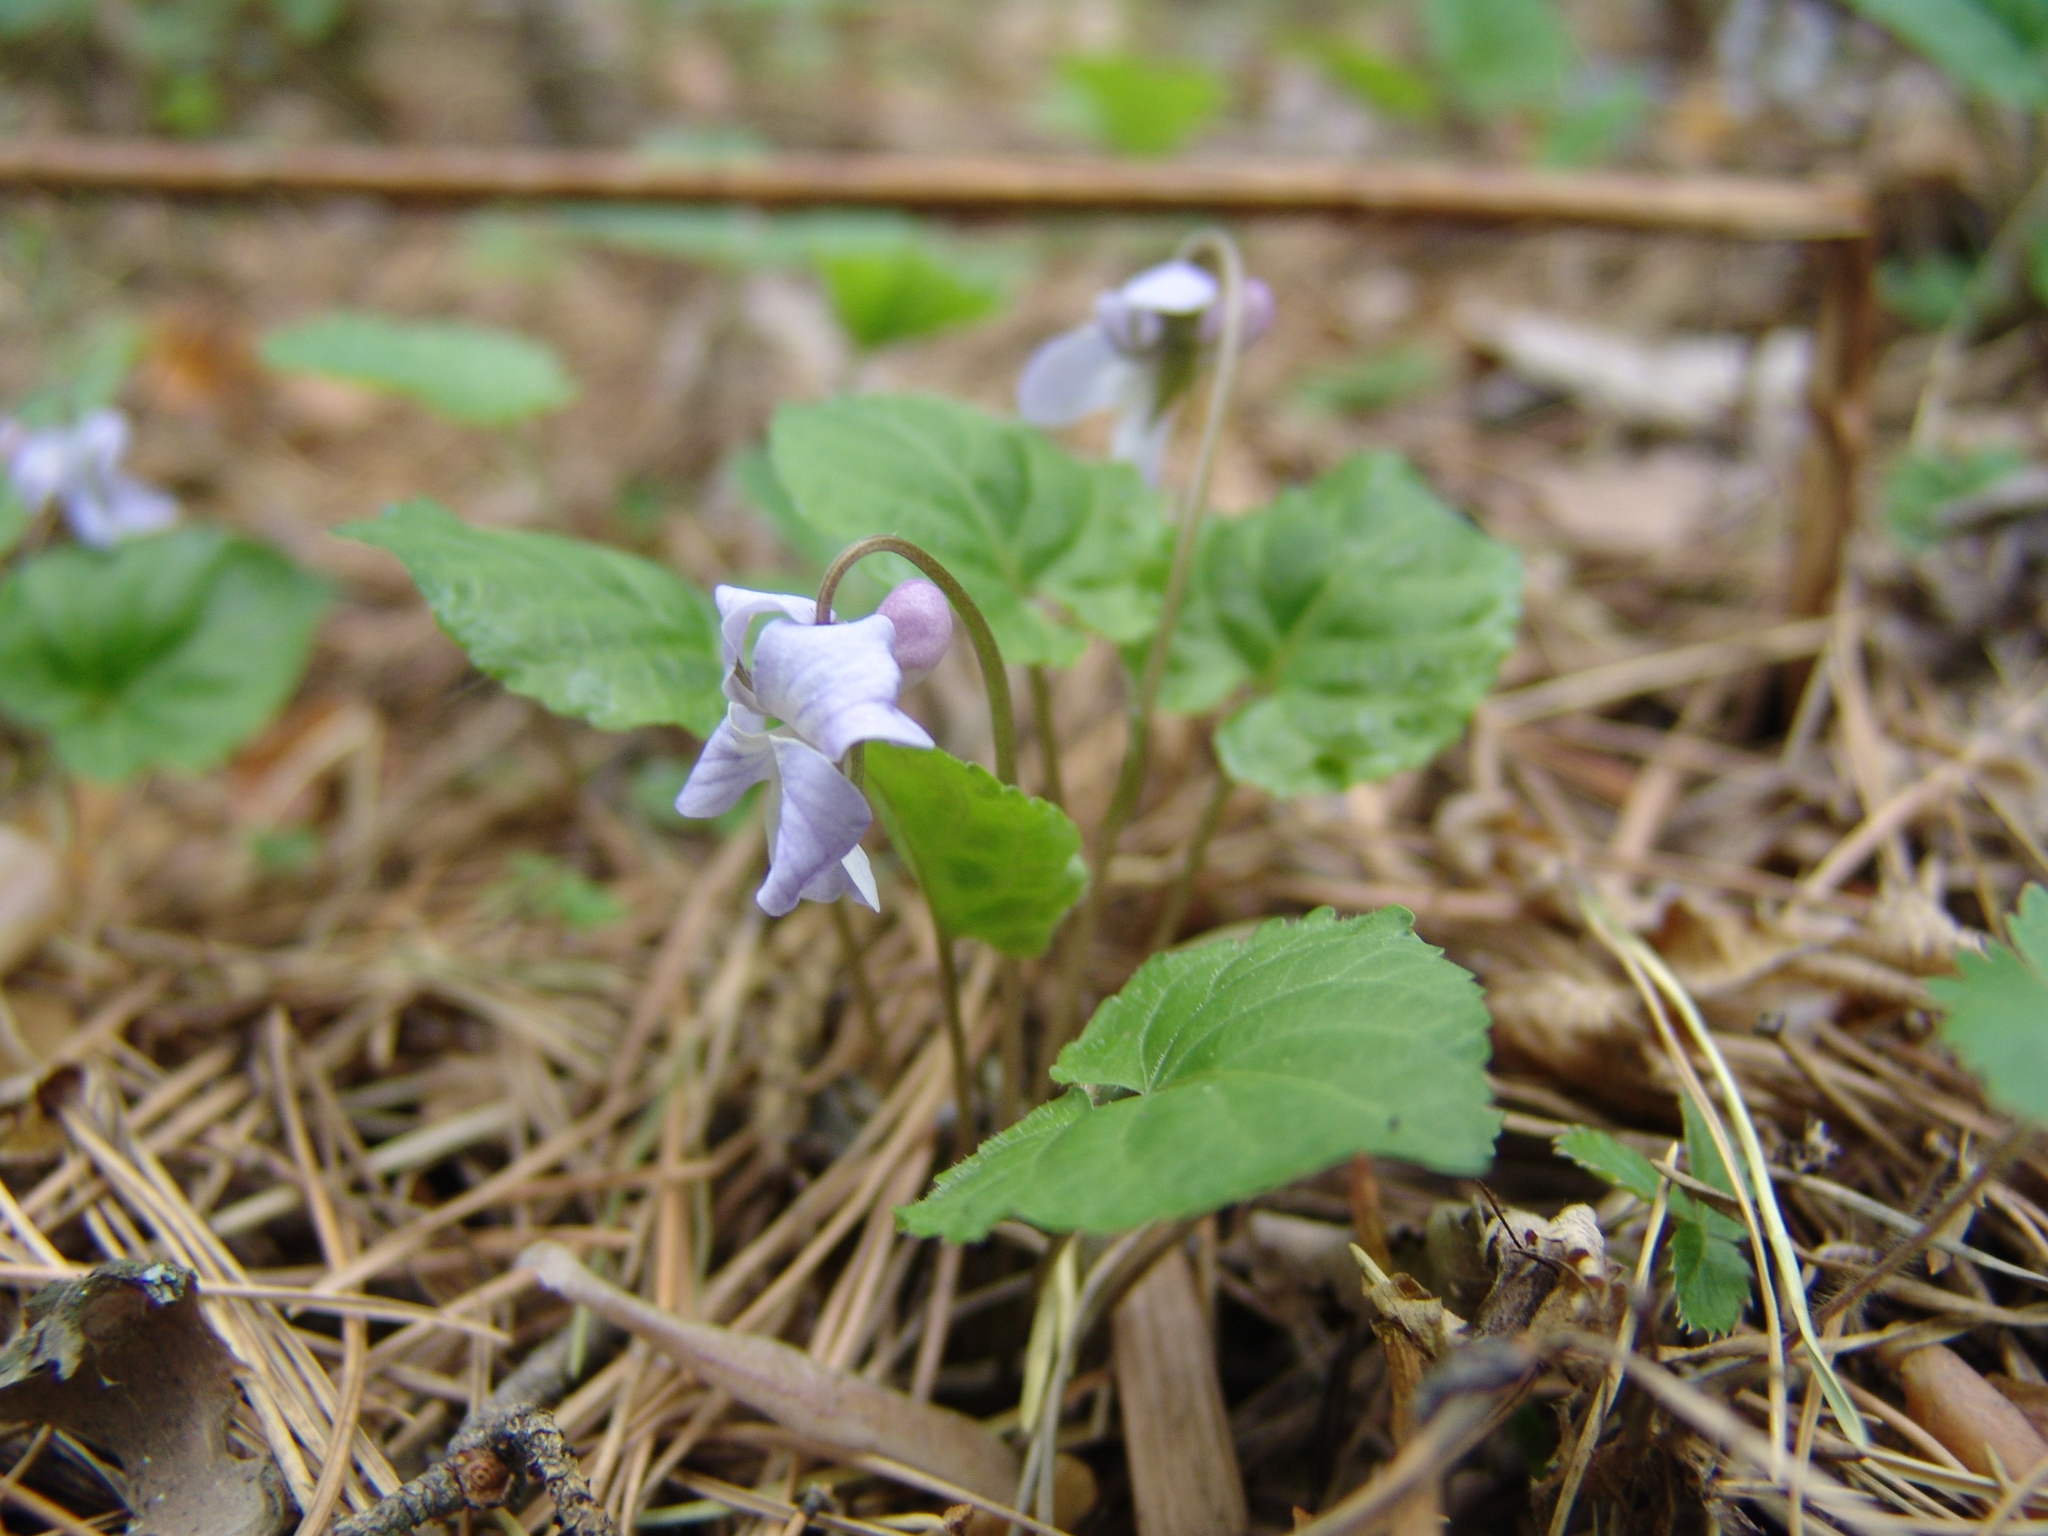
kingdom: Plantae
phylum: Tracheophyta
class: Magnoliopsida
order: Malpighiales
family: Violaceae
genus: Viola
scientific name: Viola selkirkii
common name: Selkirk's violet
